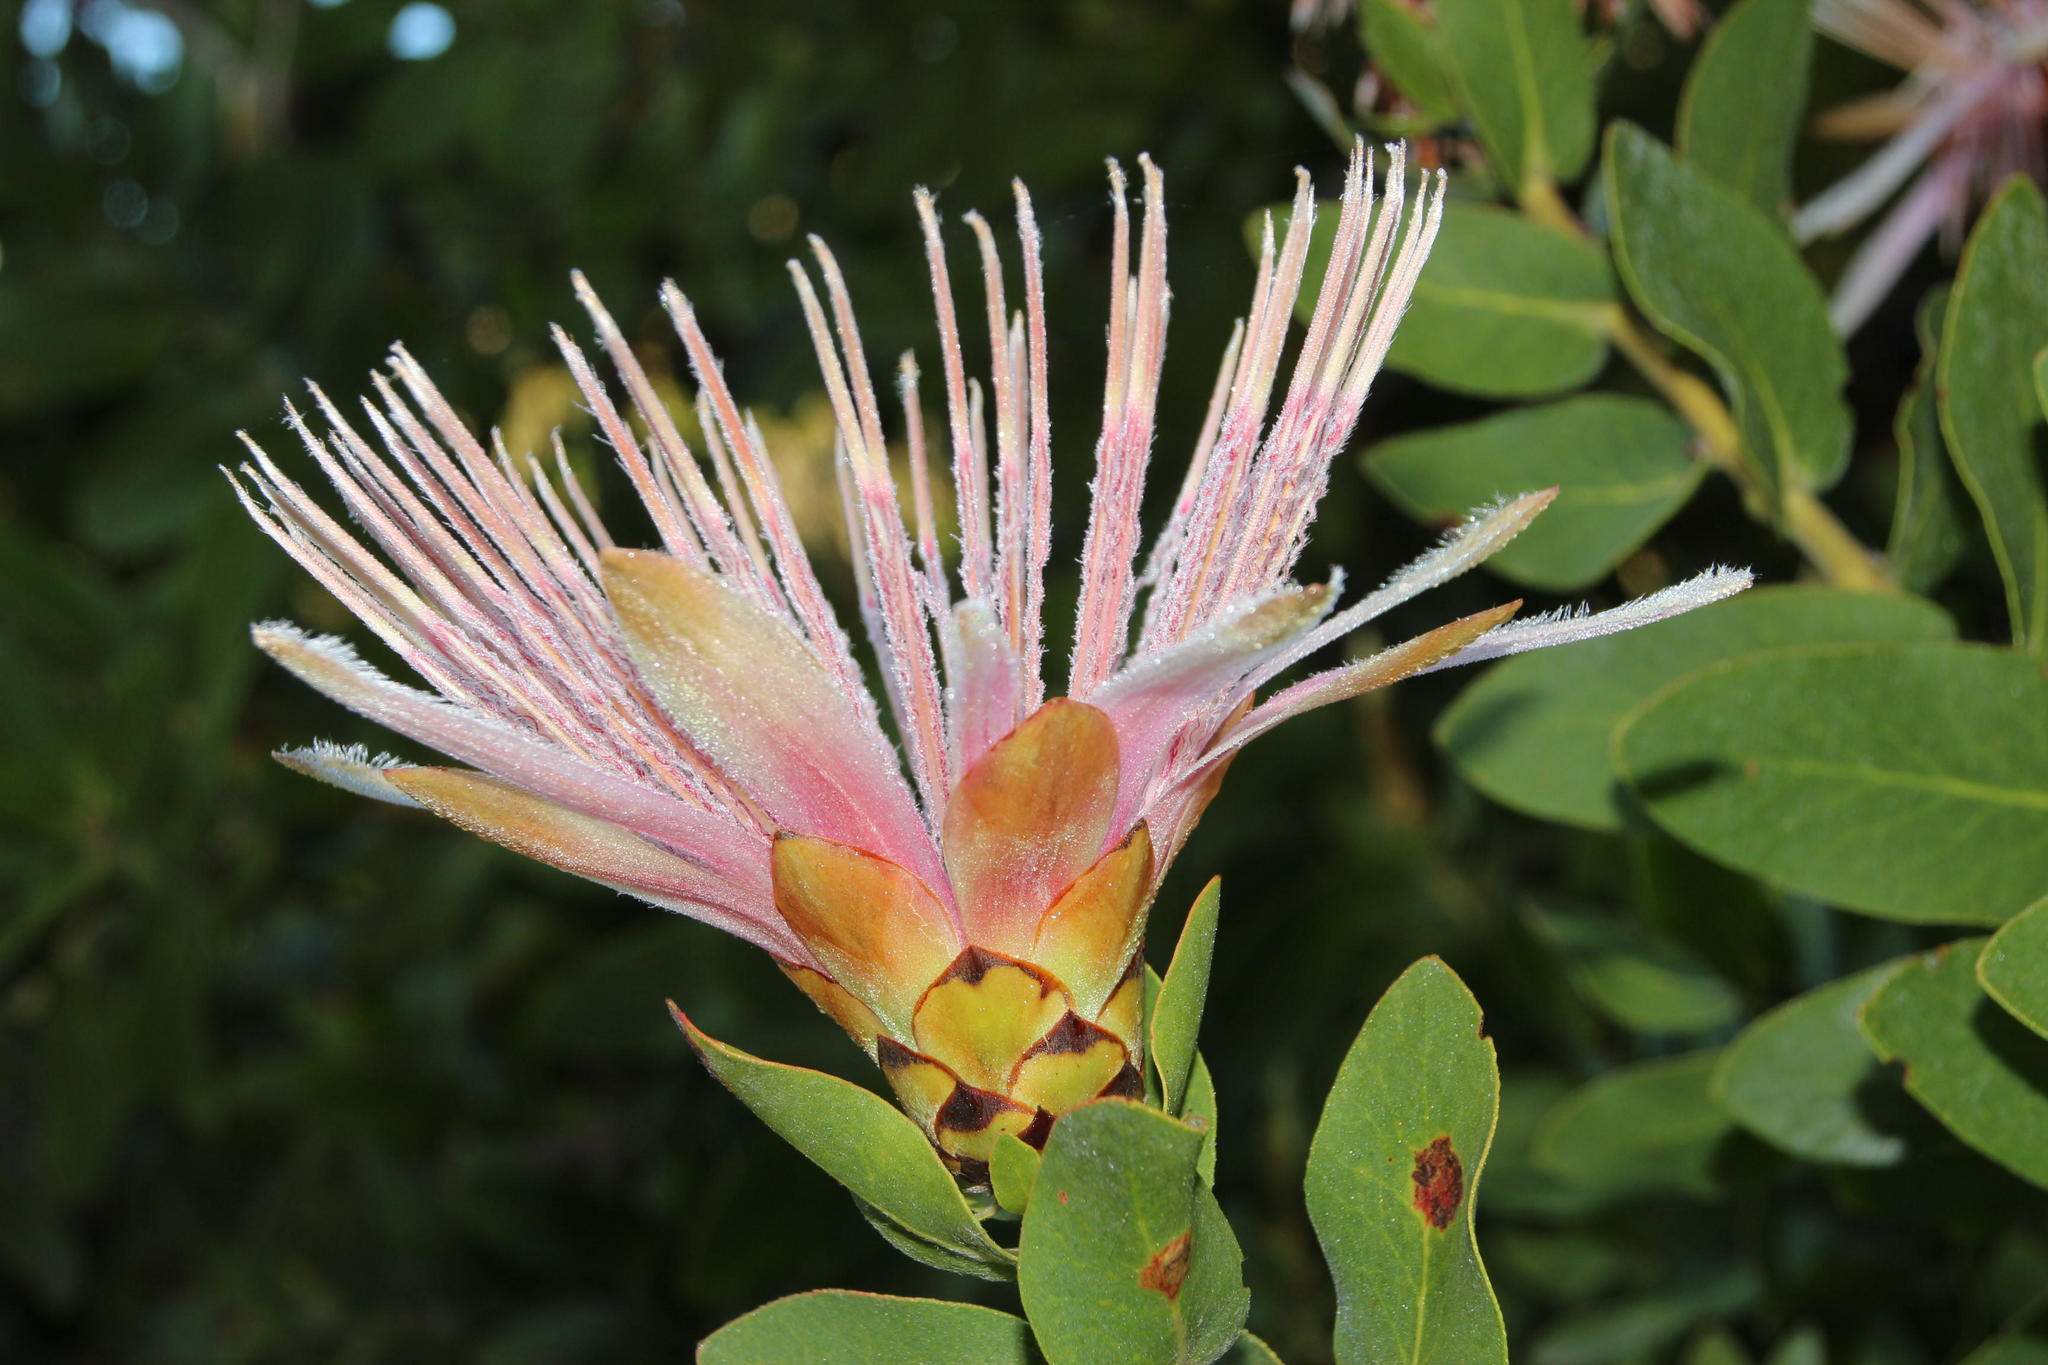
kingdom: Plantae
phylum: Tracheophyta
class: Magnoliopsida
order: Proteales
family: Proteaceae
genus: Protea
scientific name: Protea aurea
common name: Shuttlecock sugarbush
